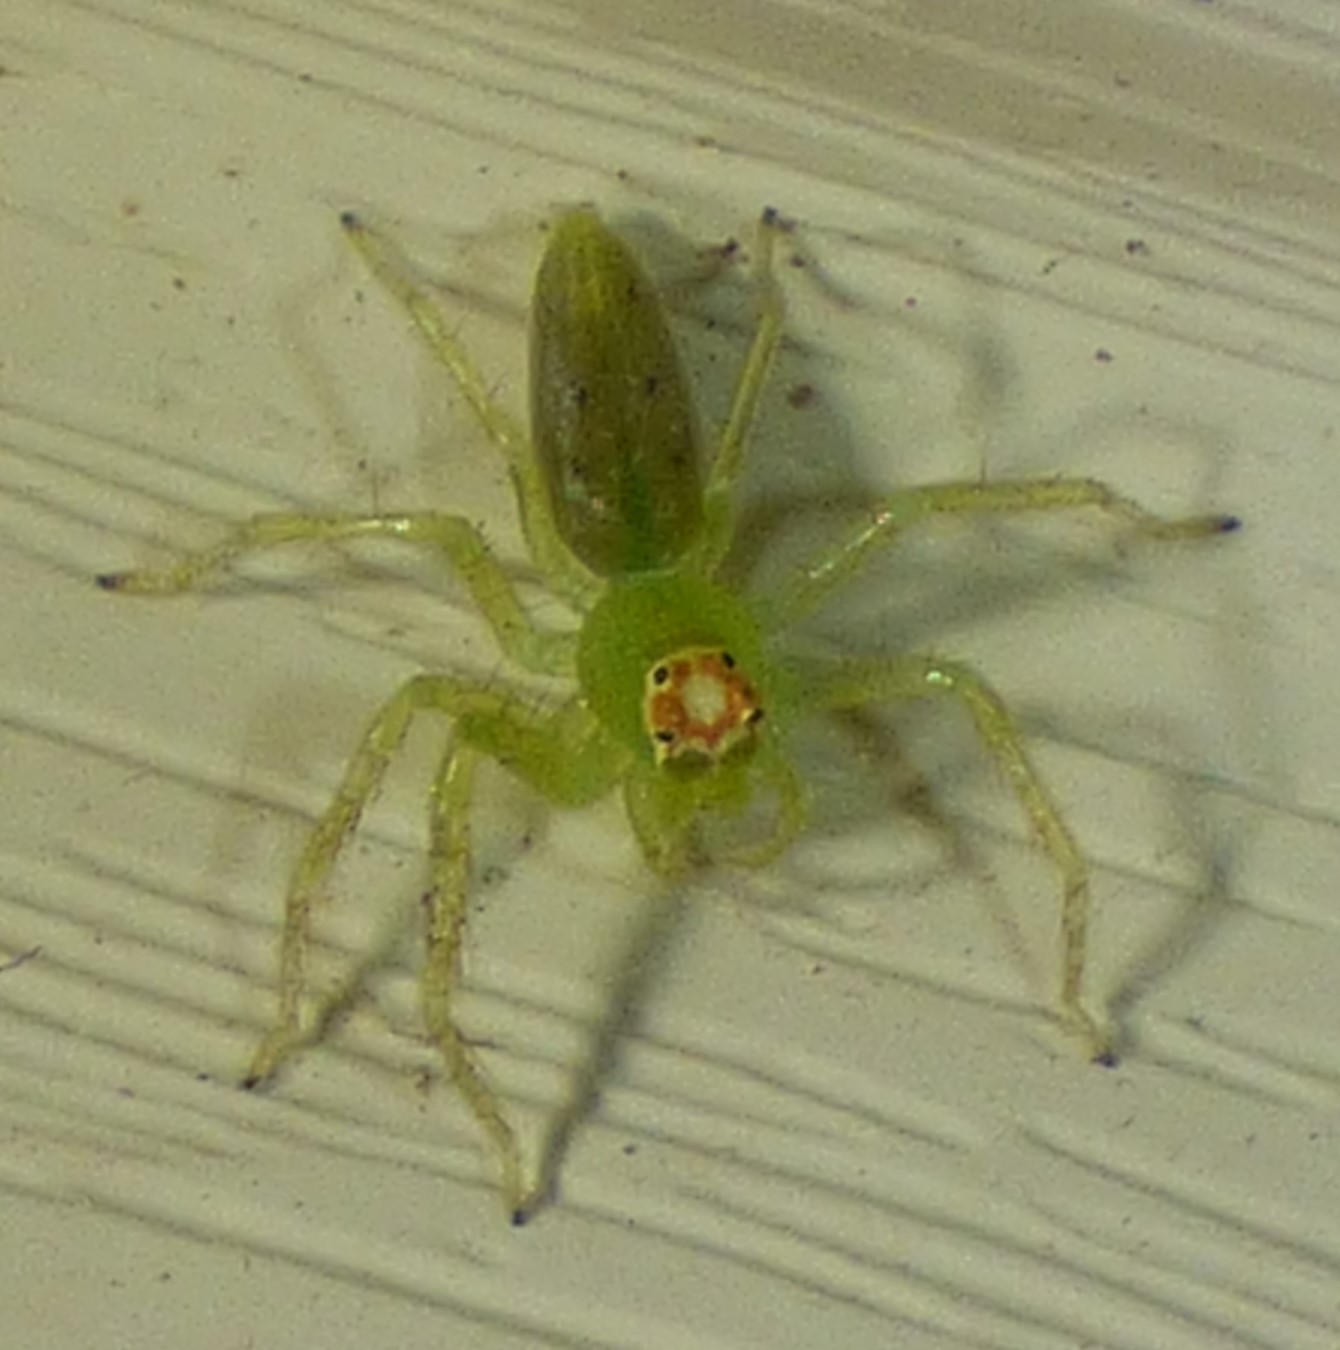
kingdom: Animalia
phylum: Arthropoda
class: Arachnida
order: Araneae
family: Salticidae
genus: Lyssomanes
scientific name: Lyssomanes viridis
